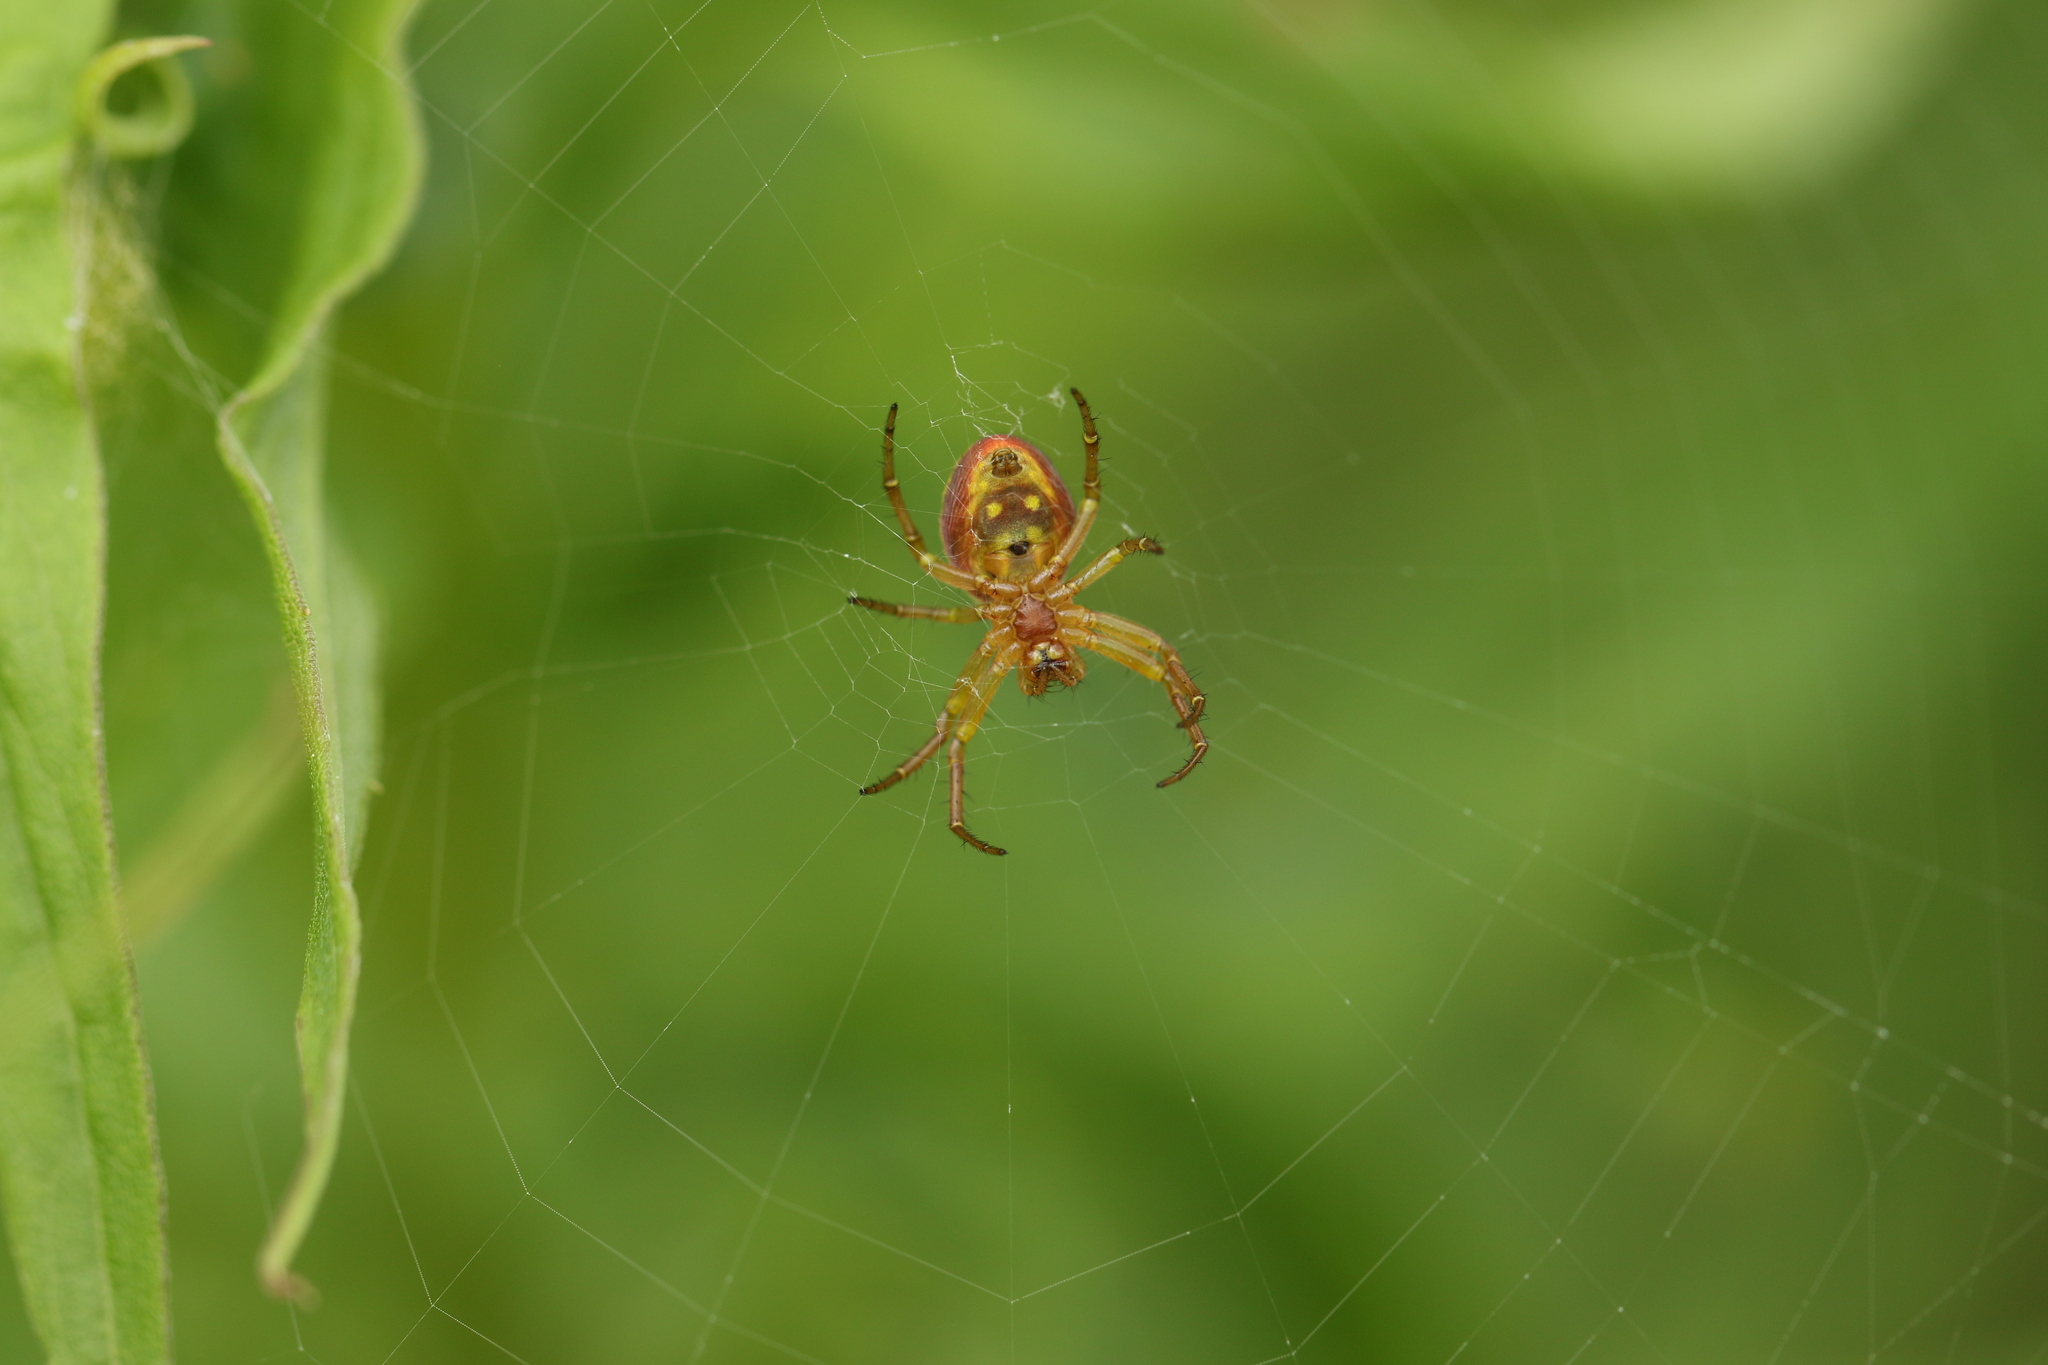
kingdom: Animalia
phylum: Arthropoda
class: Arachnida
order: Araneae
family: Araneidae
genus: Araniella
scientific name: Araniella displicata
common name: Sixspotted orb weaver
